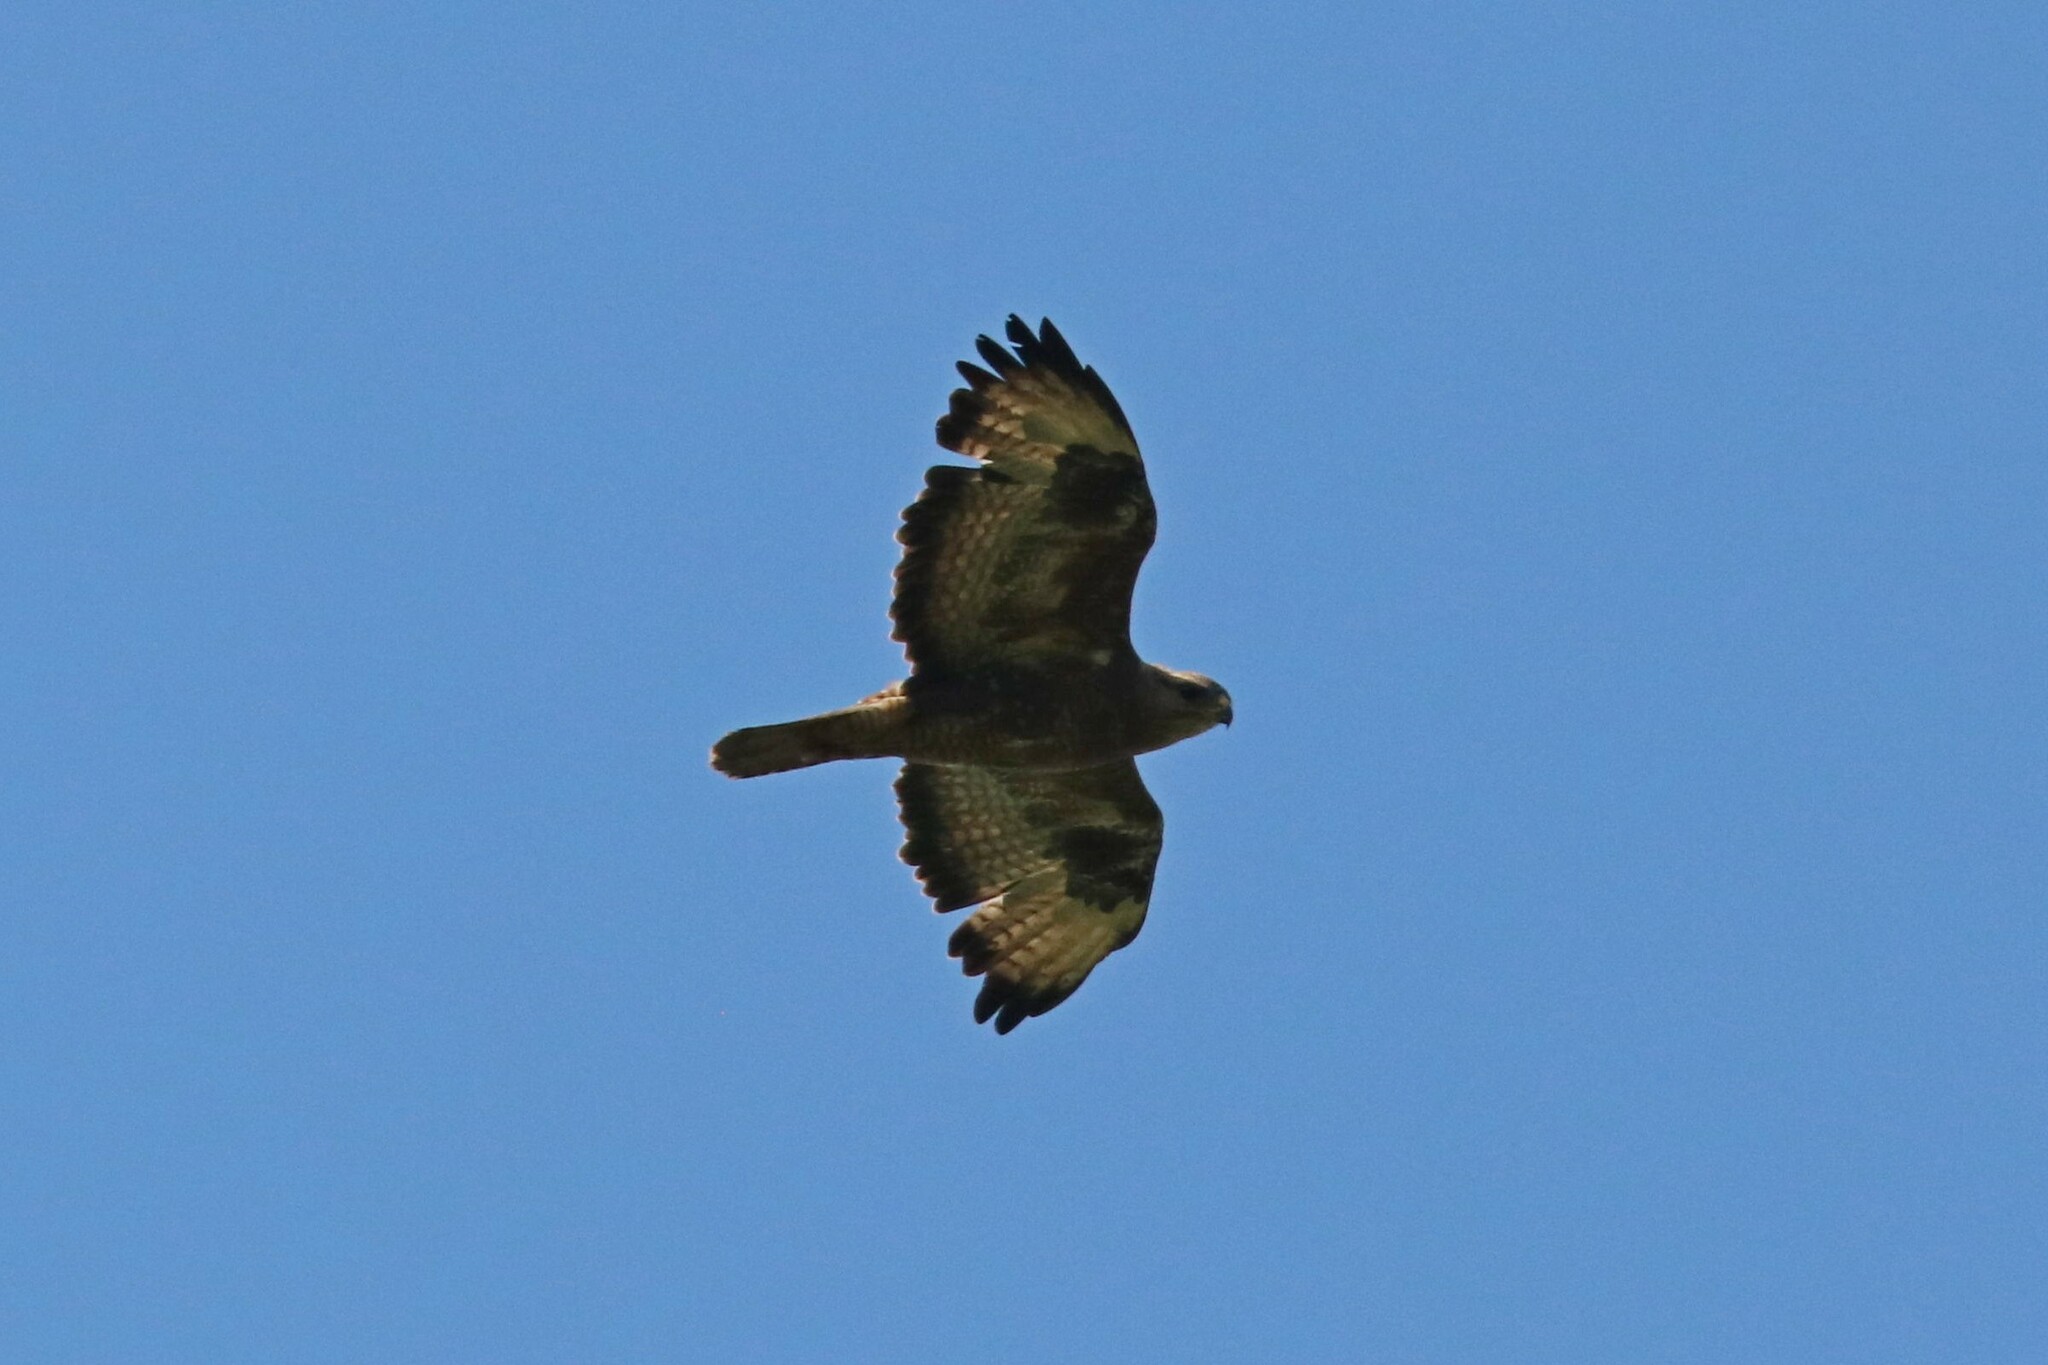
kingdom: Animalia
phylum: Chordata
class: Aves
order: Accipitriformes
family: Accipitridae
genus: Buteo
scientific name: Buteo buteo
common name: Common buzzard
